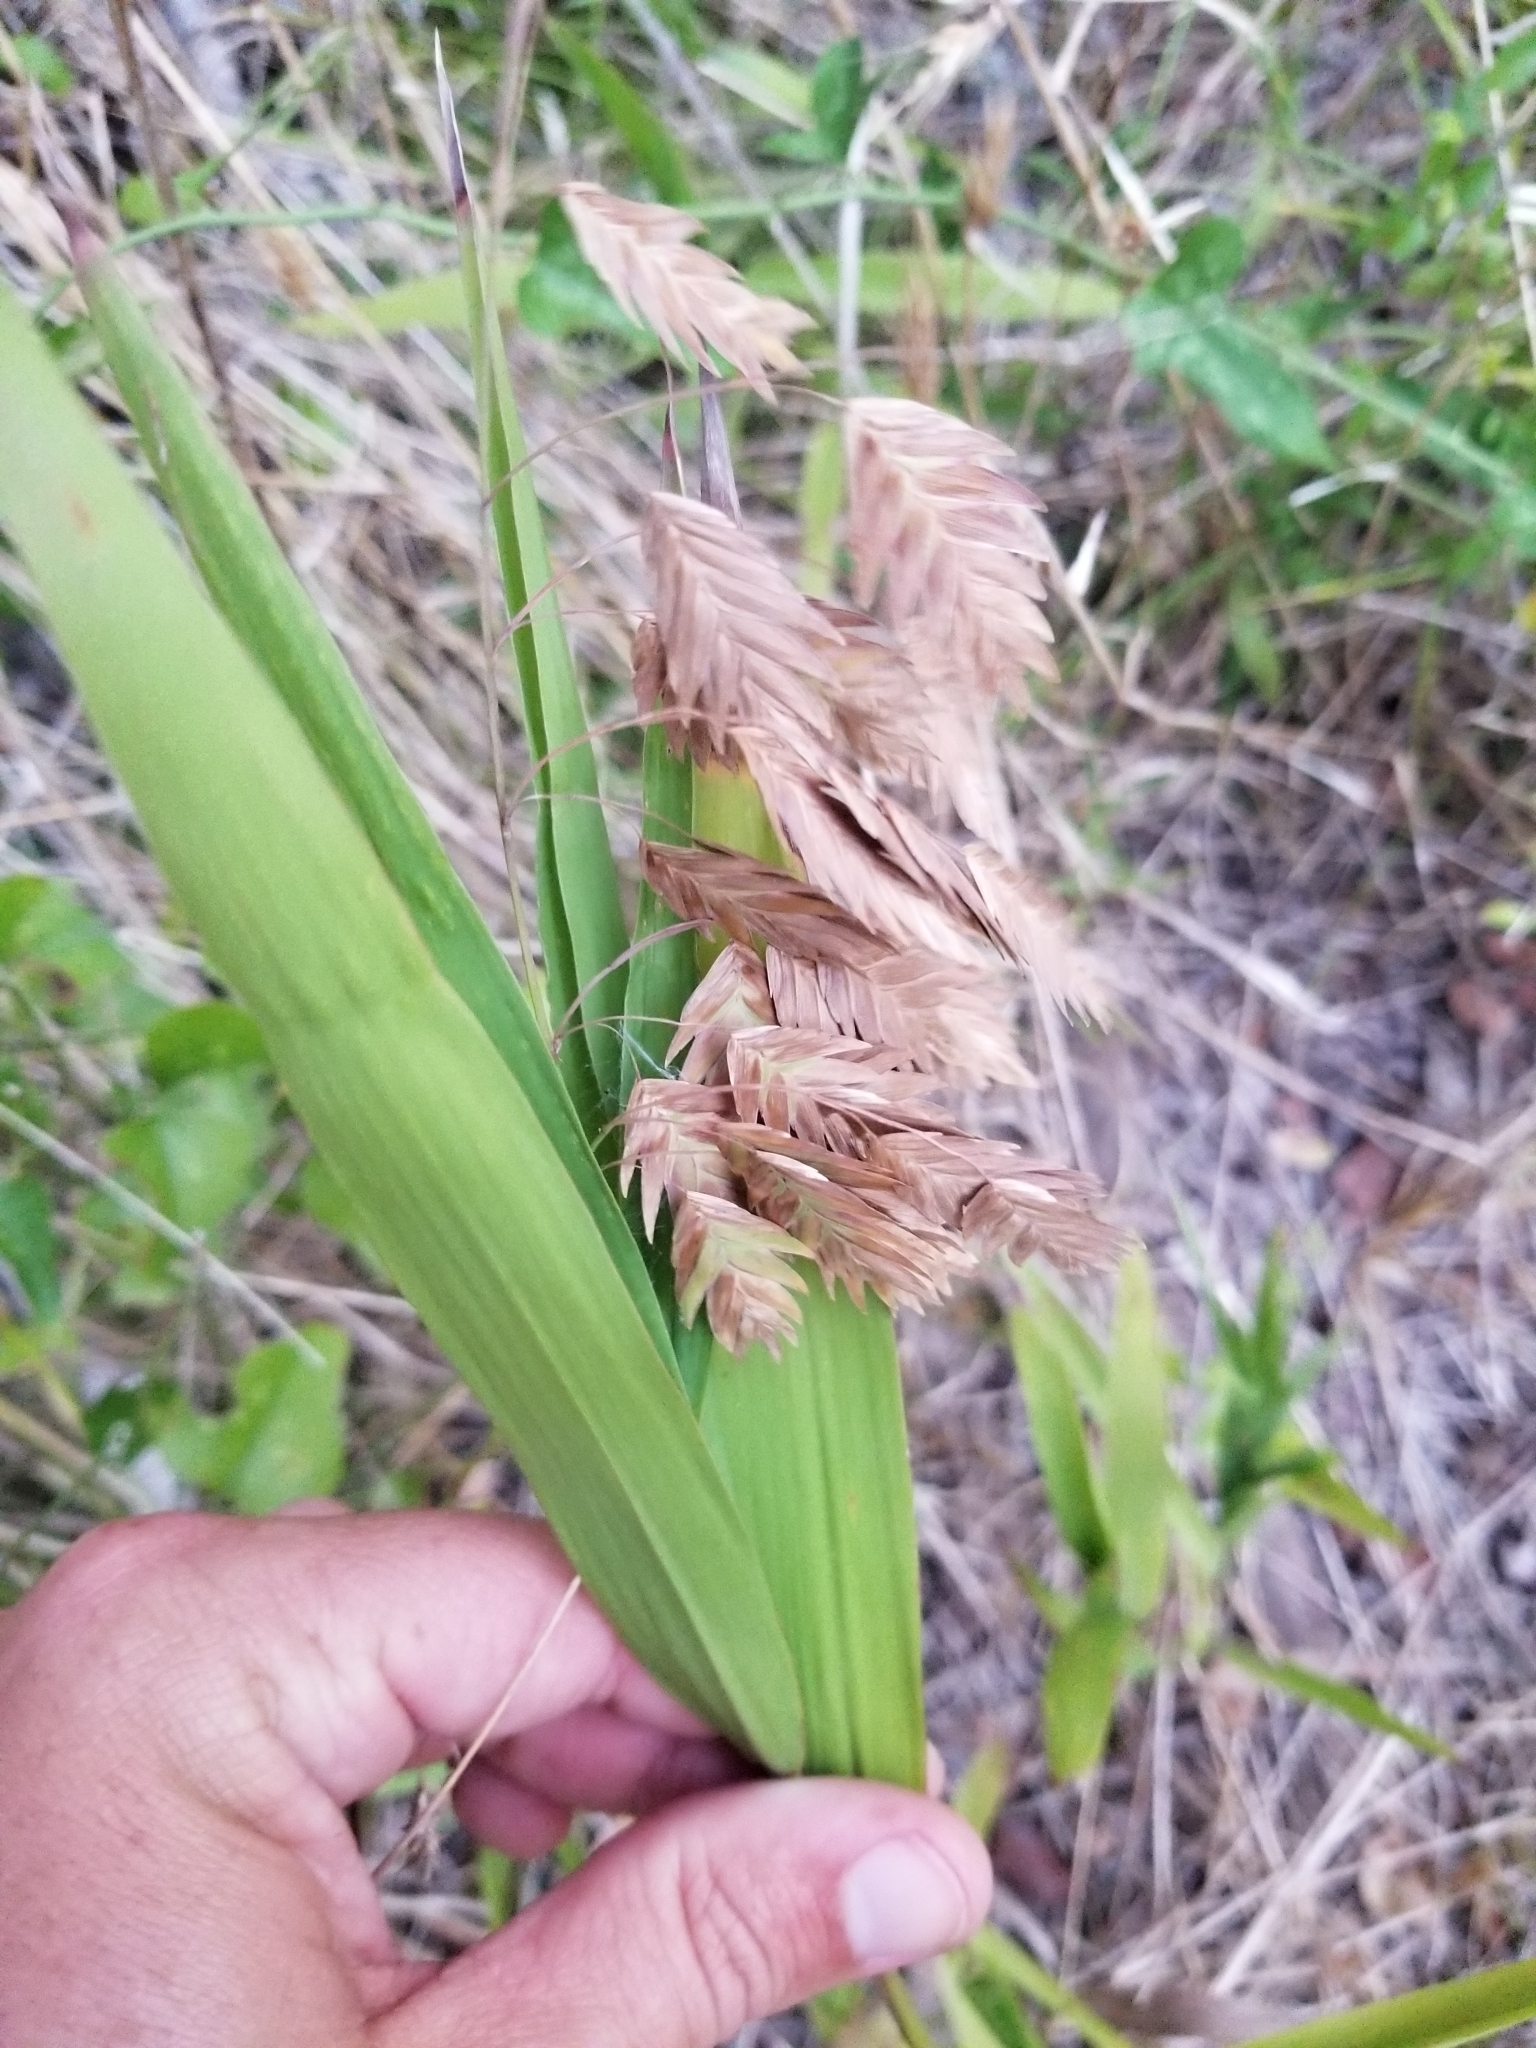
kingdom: Plantae
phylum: Tracheophyta
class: Liliopsida
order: Poales
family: Poaceae
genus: Chasmanthium
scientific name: Chasmanthium latifolium
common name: Broad-leaved chasmanthium
